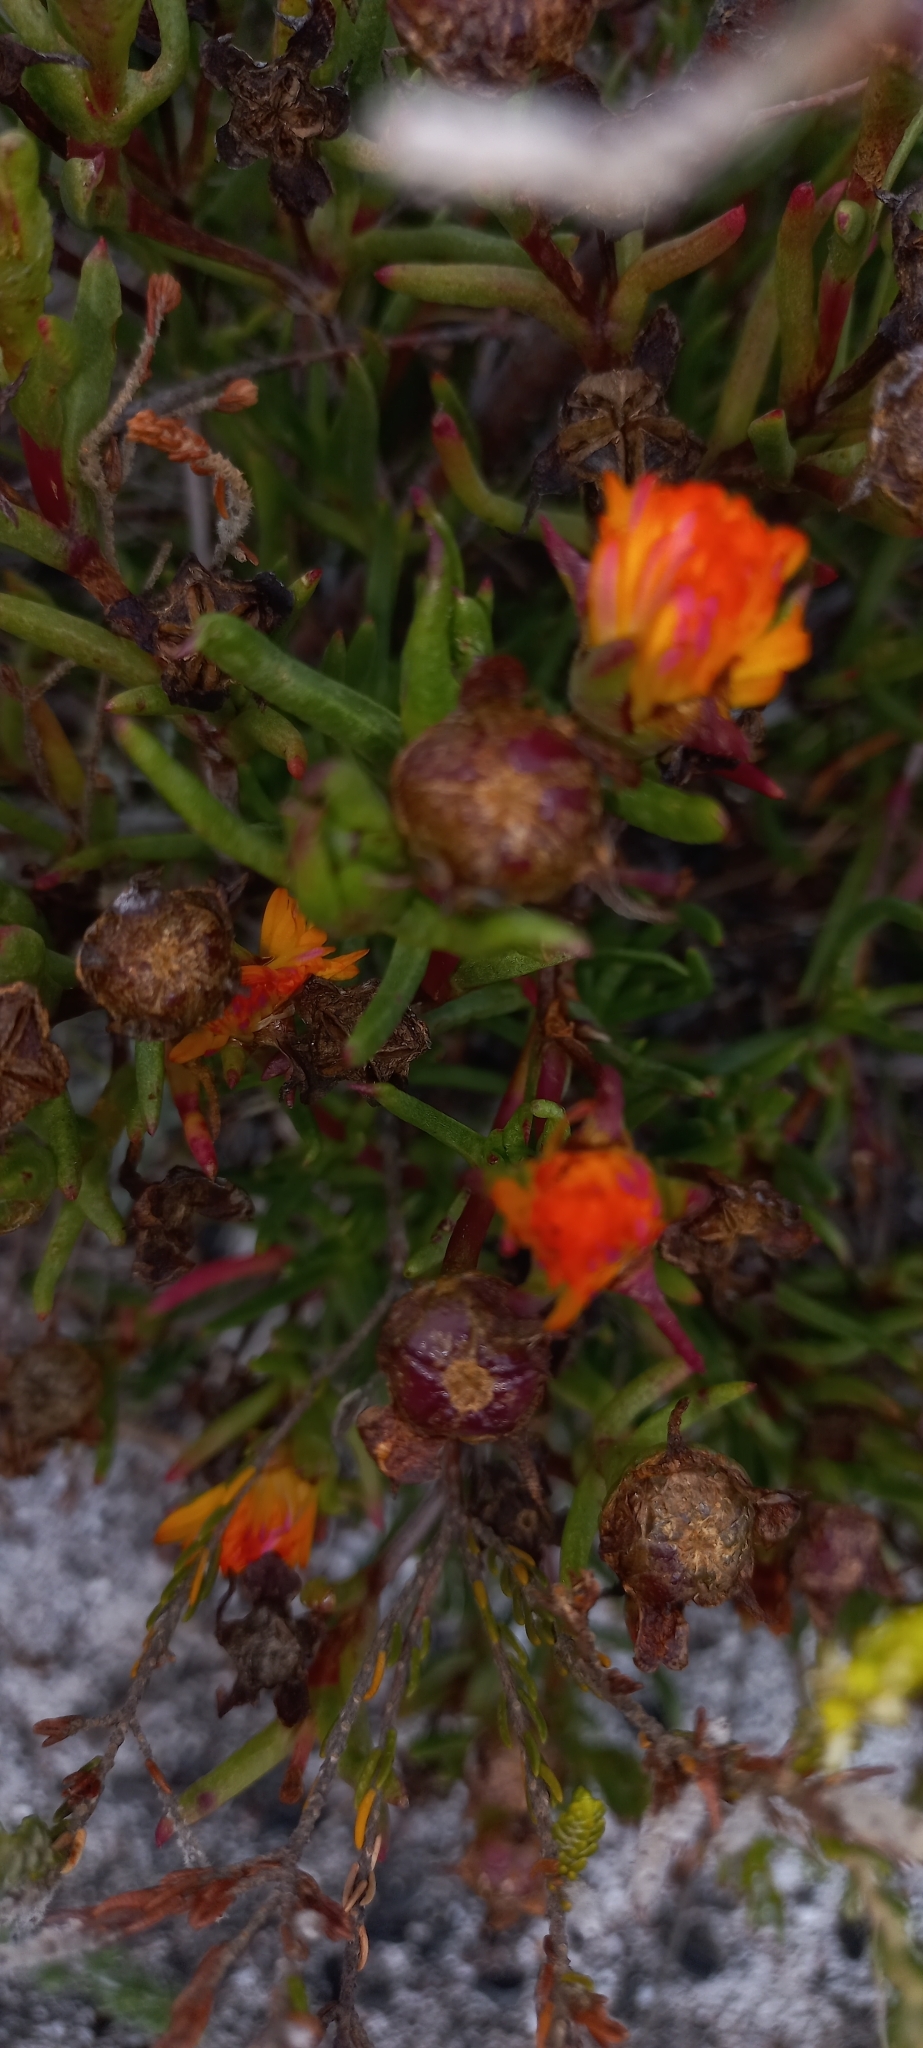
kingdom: Plantae
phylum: Tracheophyta
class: Magnoliopsida
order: Caryophyllales
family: Aizoaceae
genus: Lampranthus
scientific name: Lampranthus bicolor
